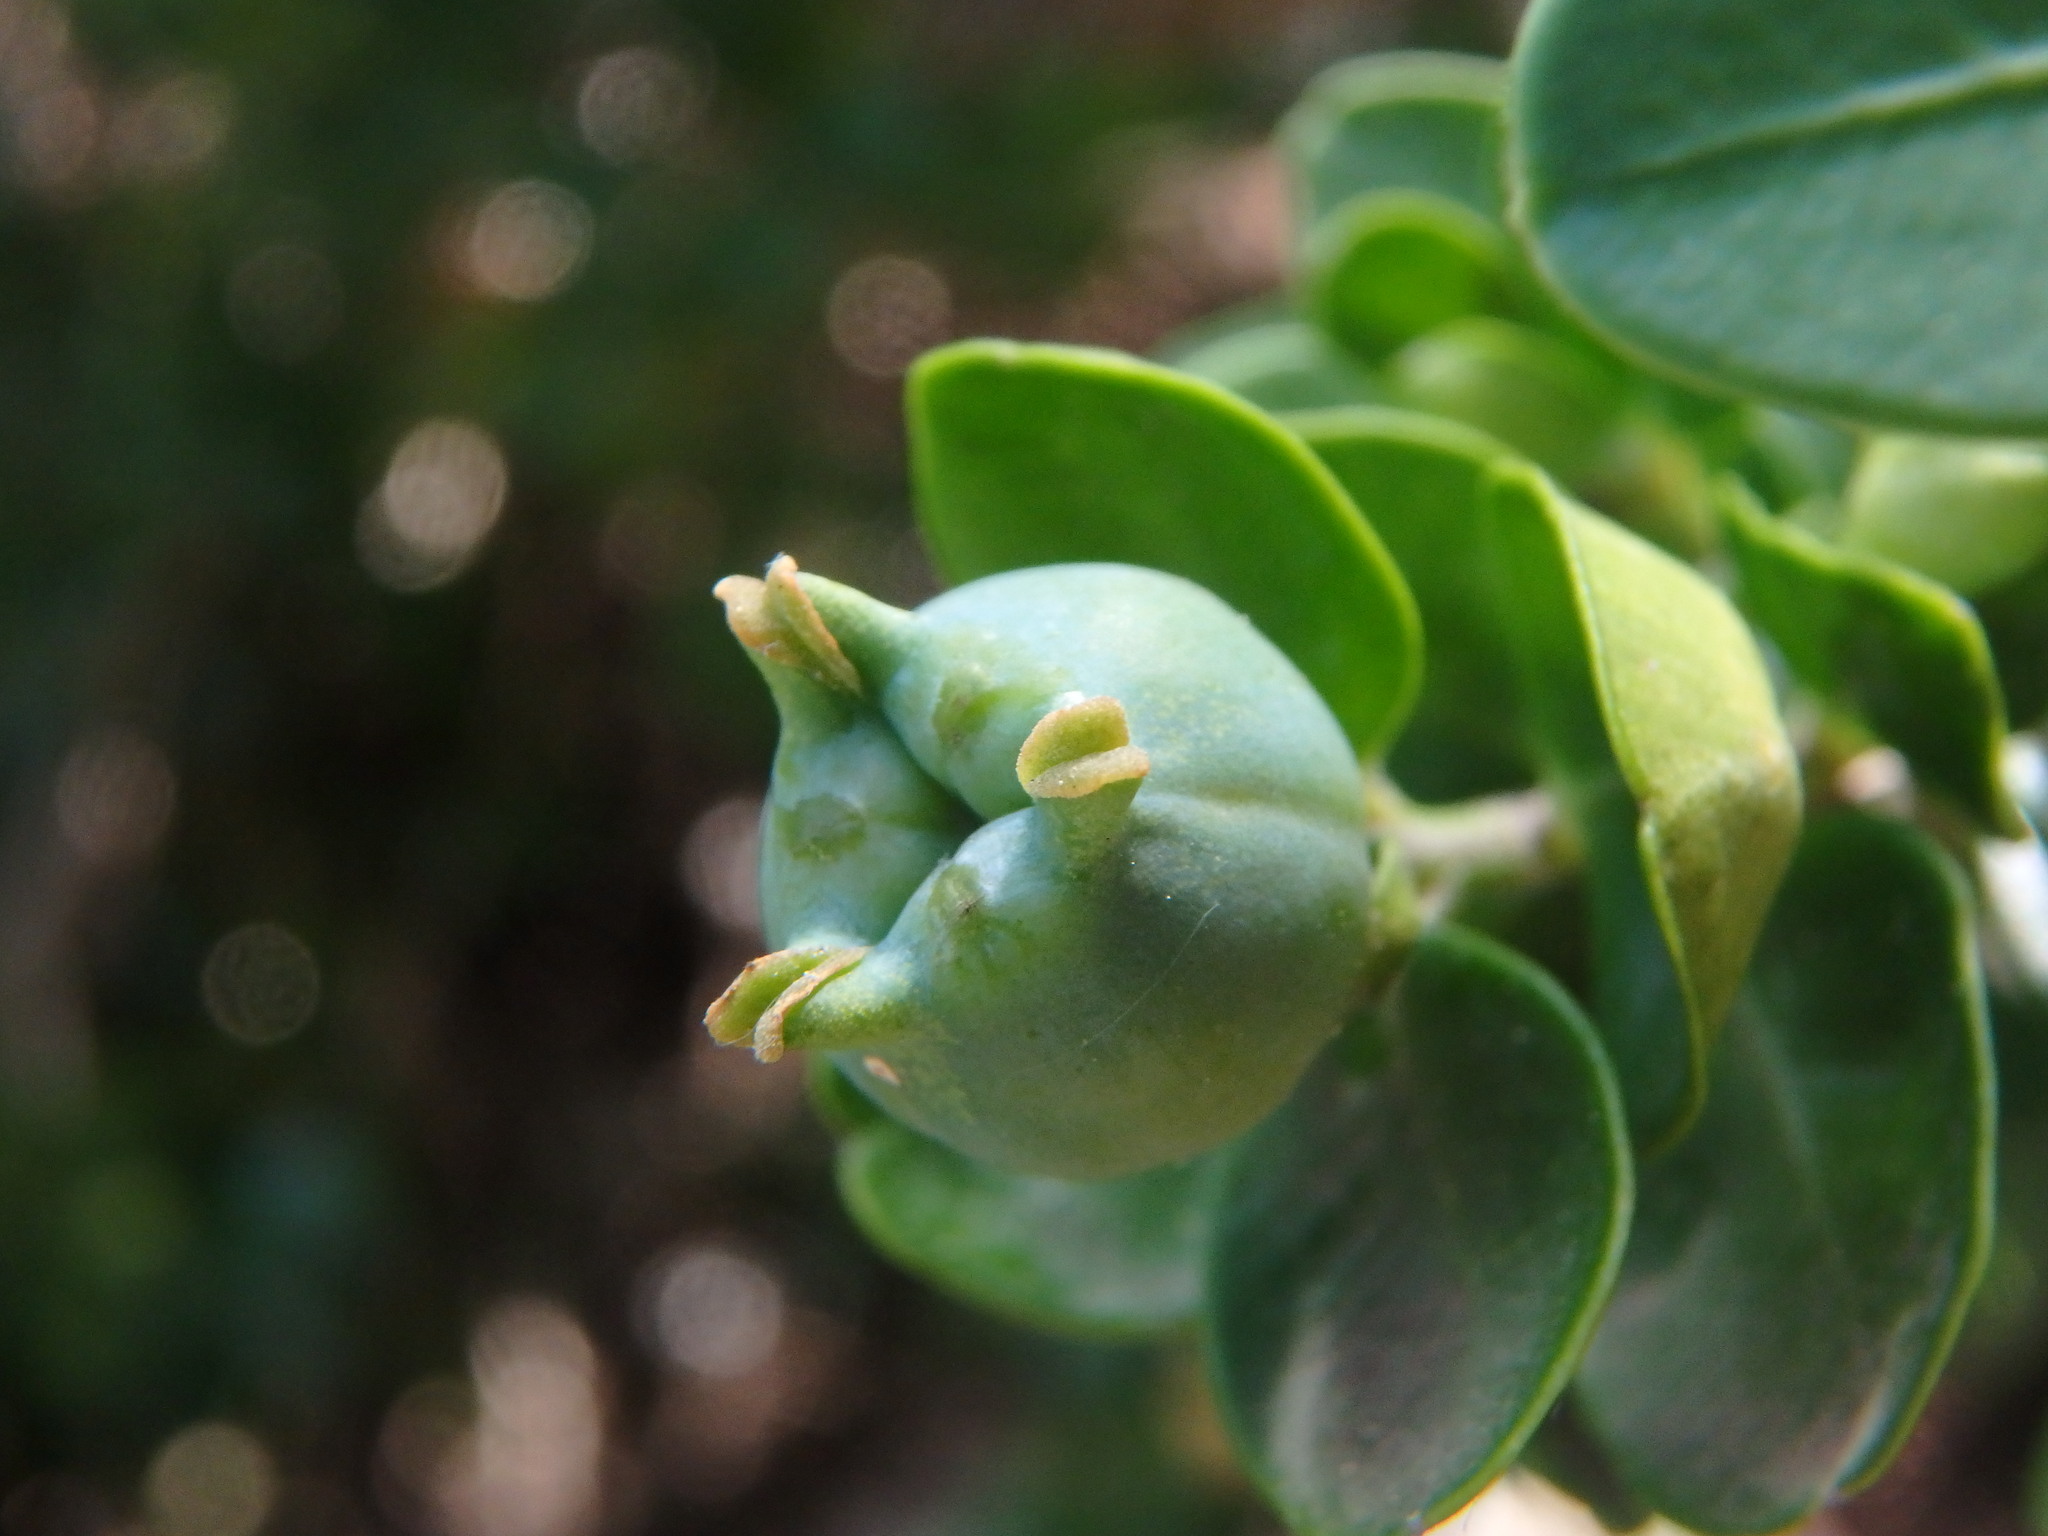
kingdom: Plantae
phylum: Tracheophyta
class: Magnoliopsida
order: Buxales
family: Buxaceae
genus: Buxus
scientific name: Buxus sempervirens
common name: Box
